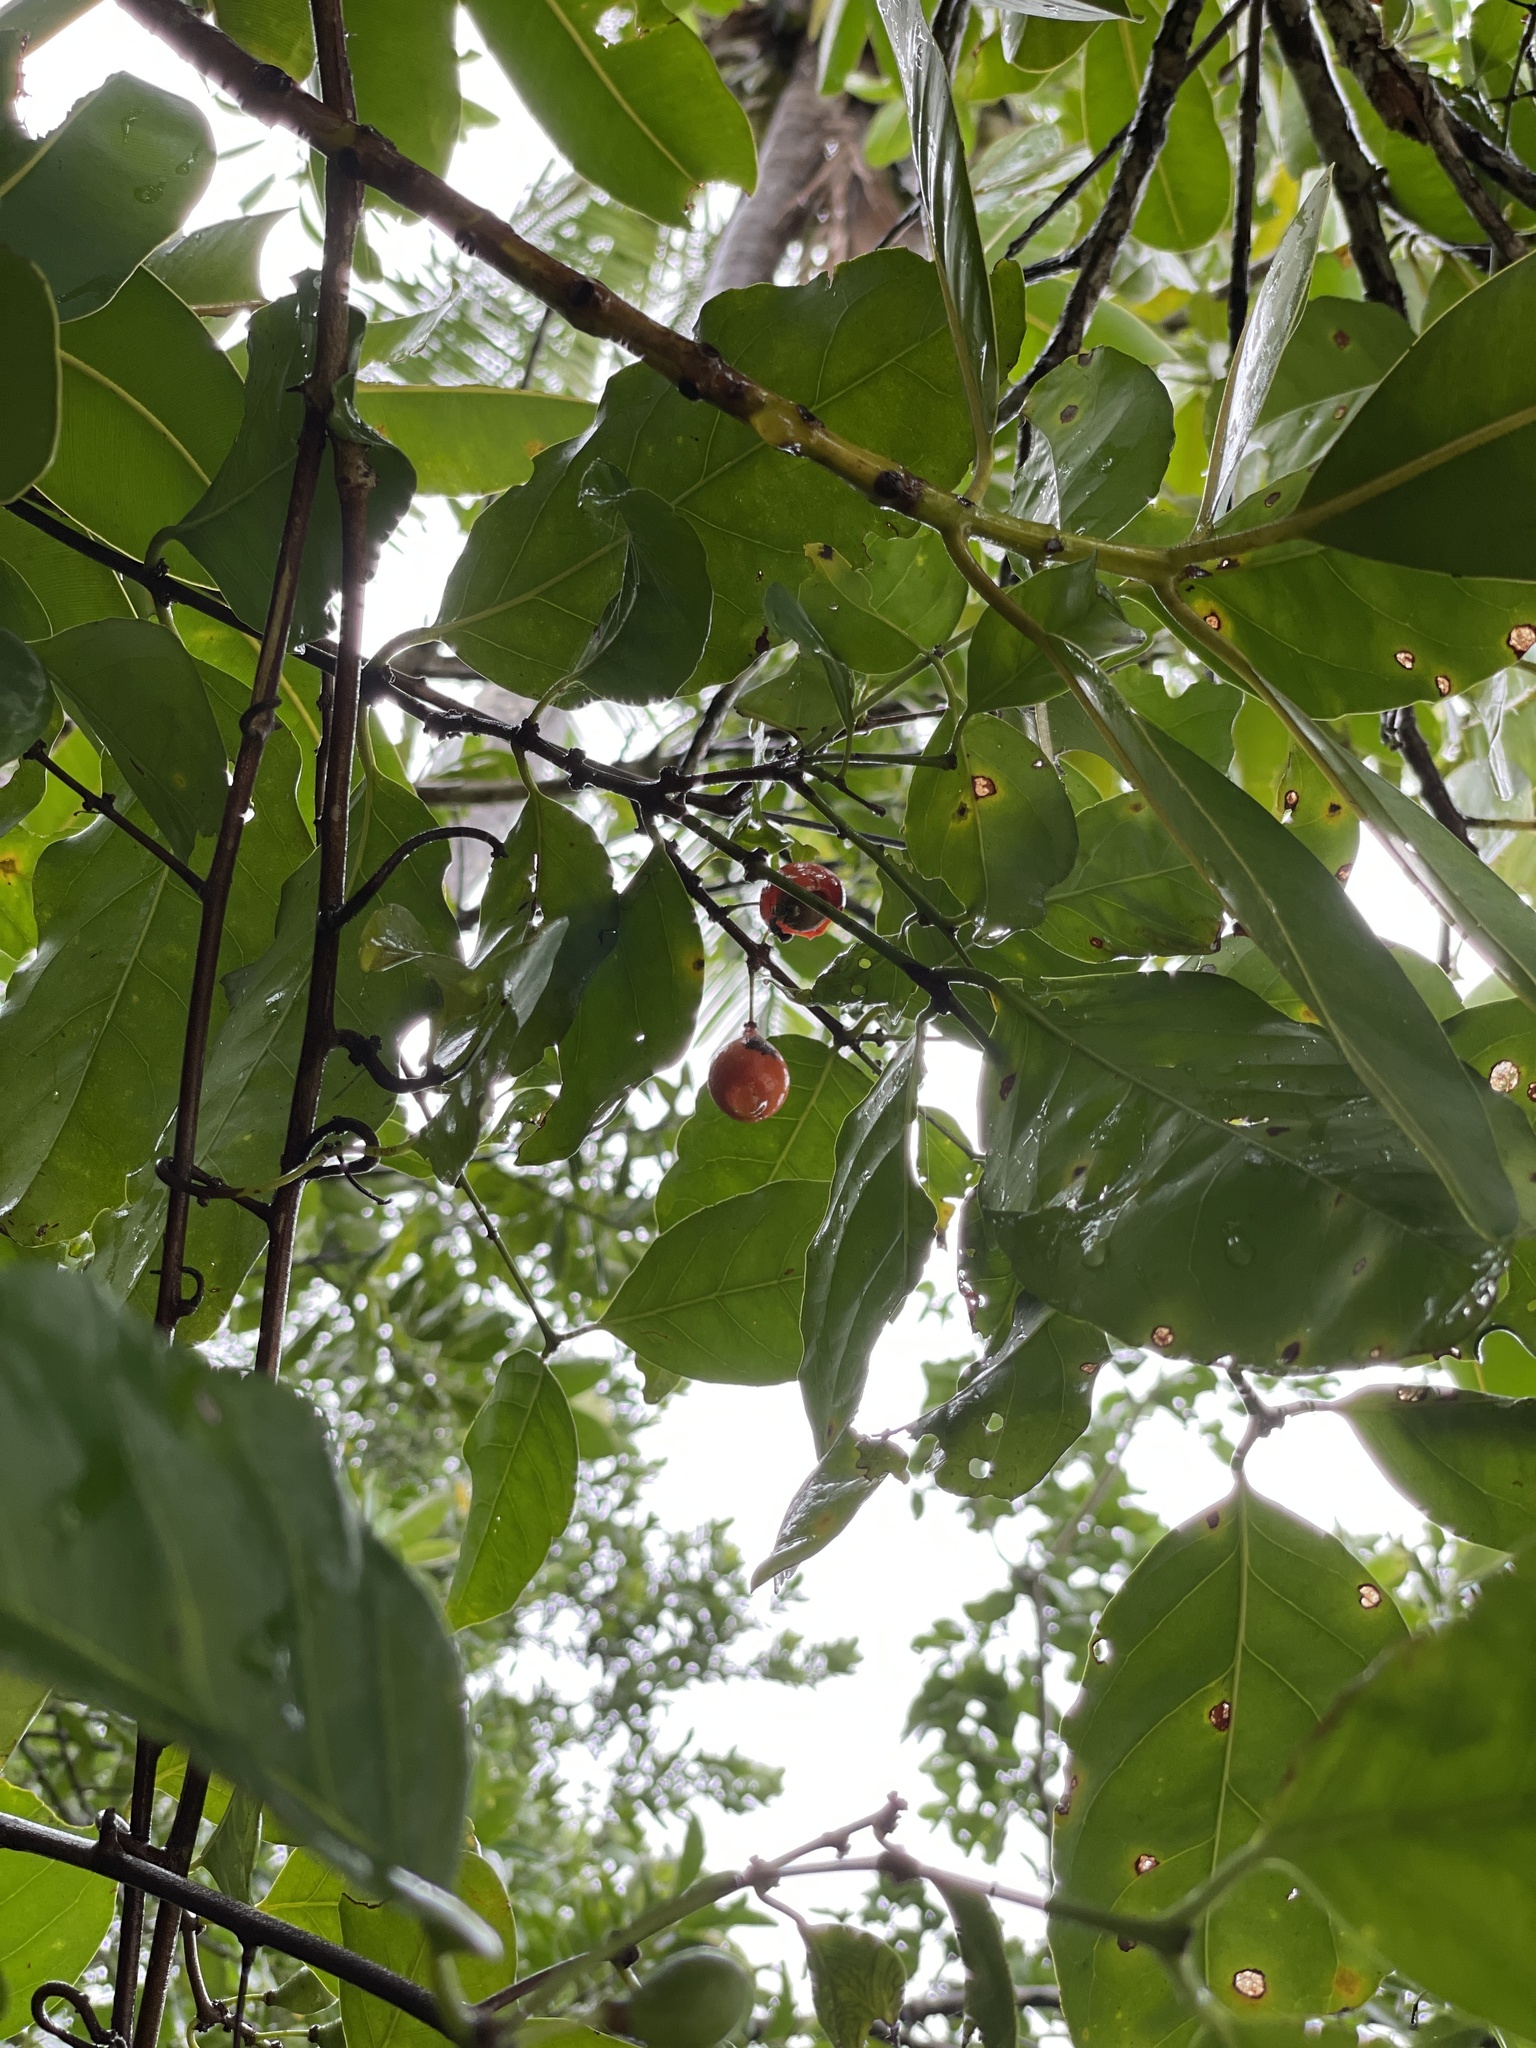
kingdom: Plantae
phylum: Tracheophyta
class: Magnoliopsida
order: Celastrales
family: Celastraceae
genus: Salacia
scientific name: Salacia chinensis
